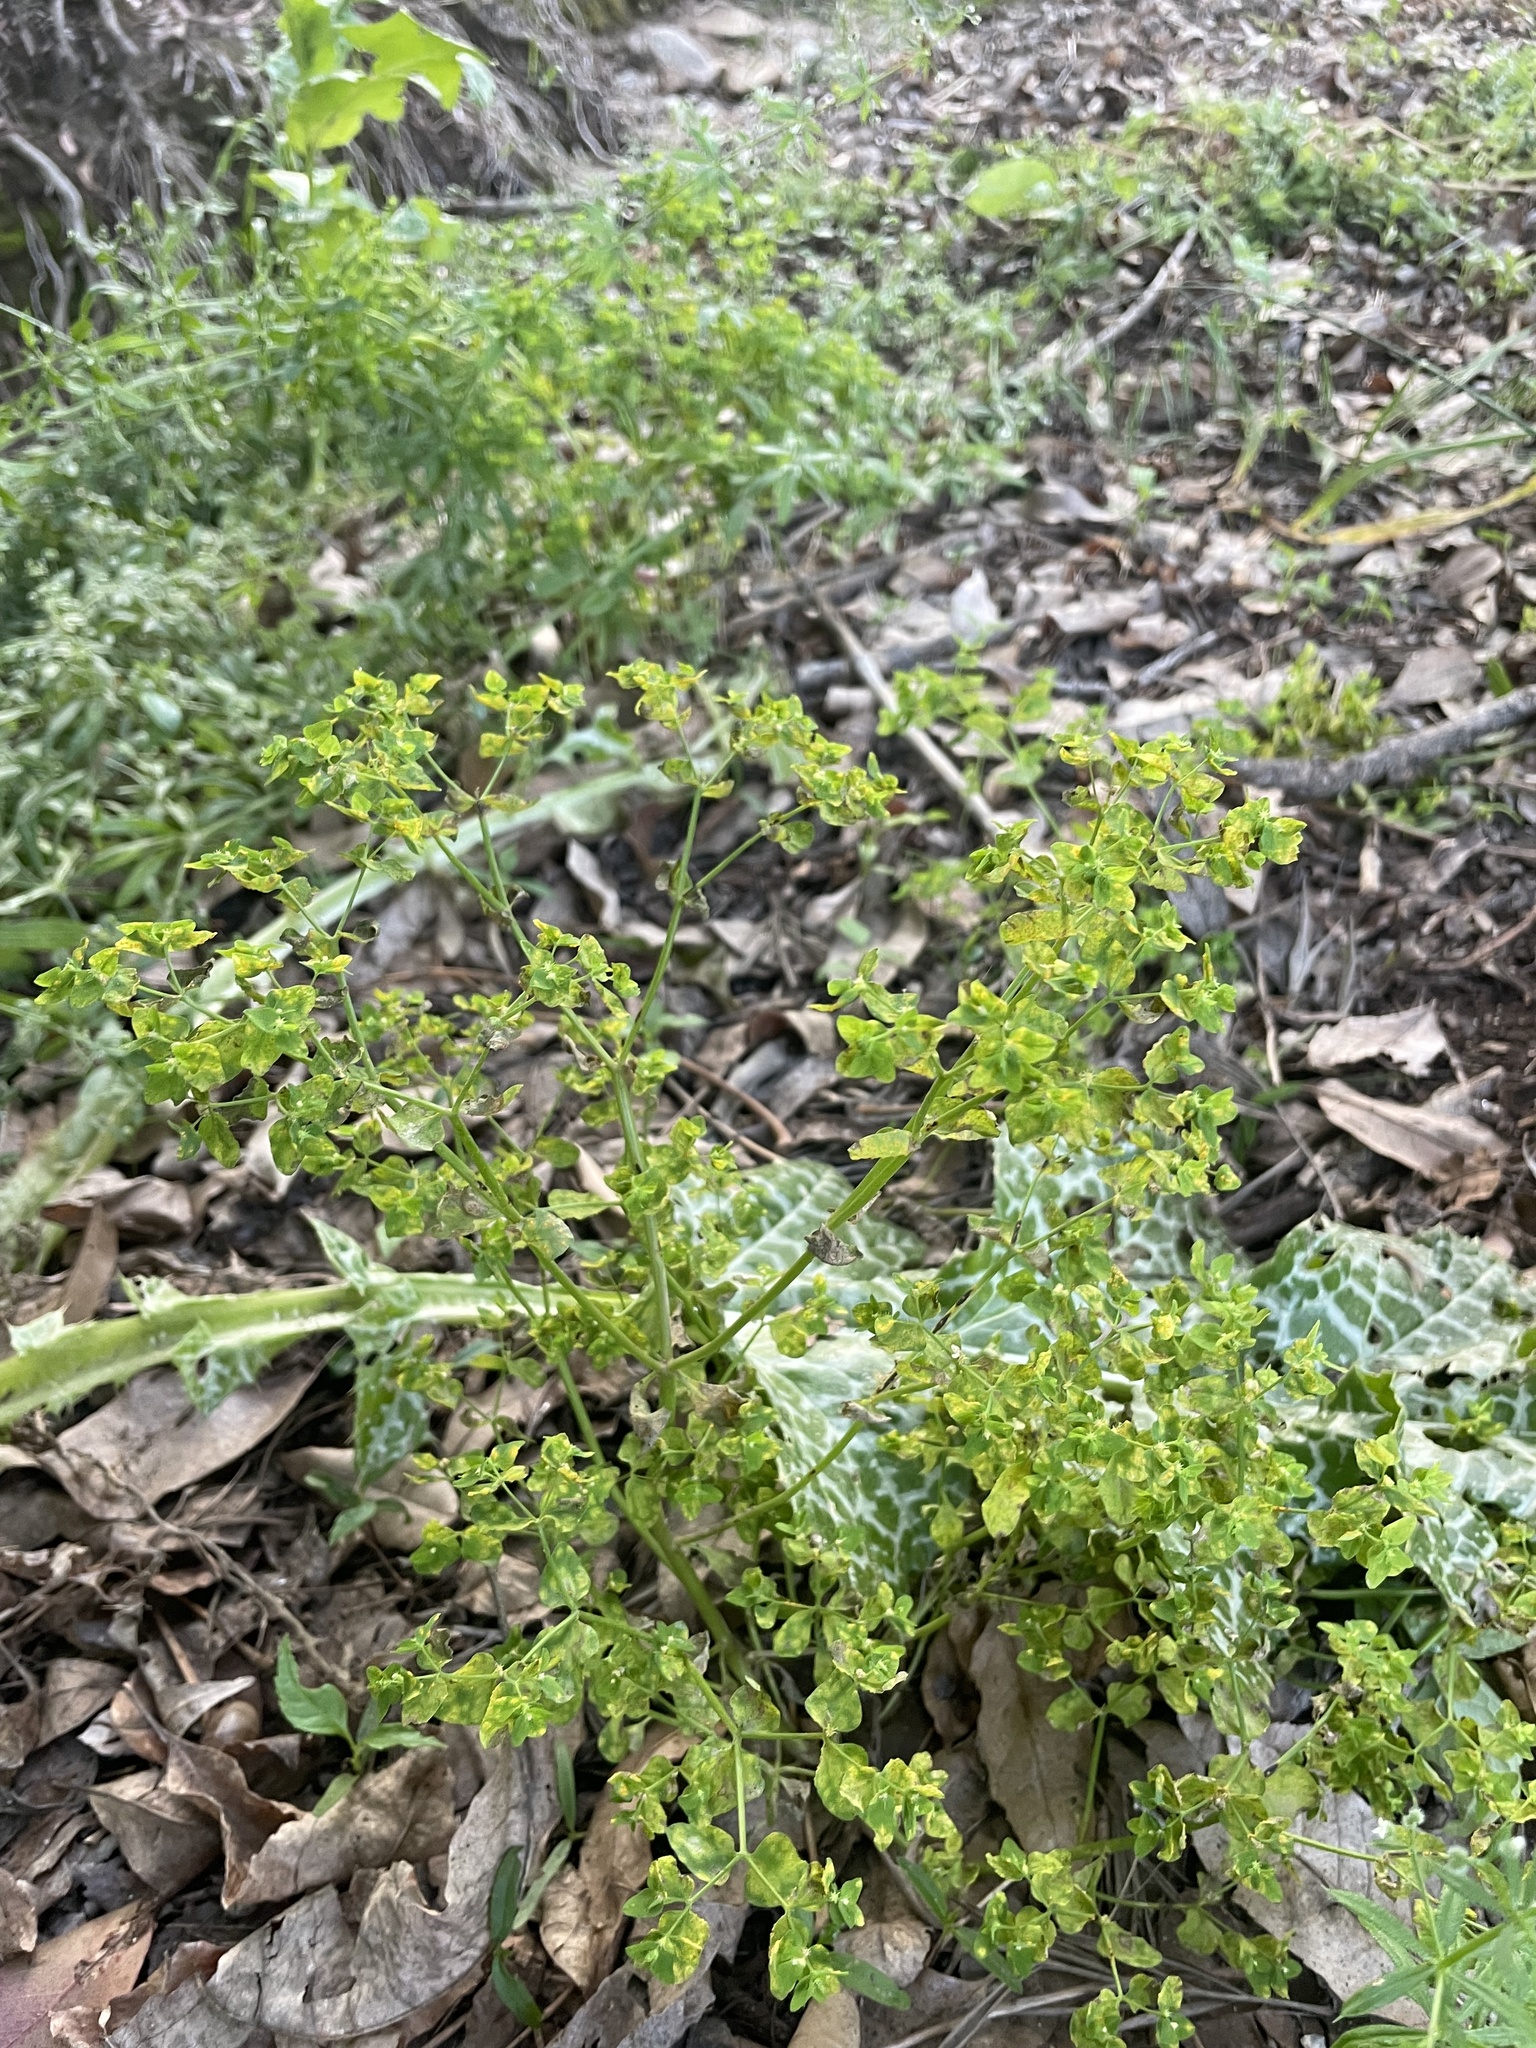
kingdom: Plantae
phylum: Tracheophyta
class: Magnoliopsida
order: Malpighiales
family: Euphorbiaceae
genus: Euphorbia
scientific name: Euphorbia peplus
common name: Petty spurge
